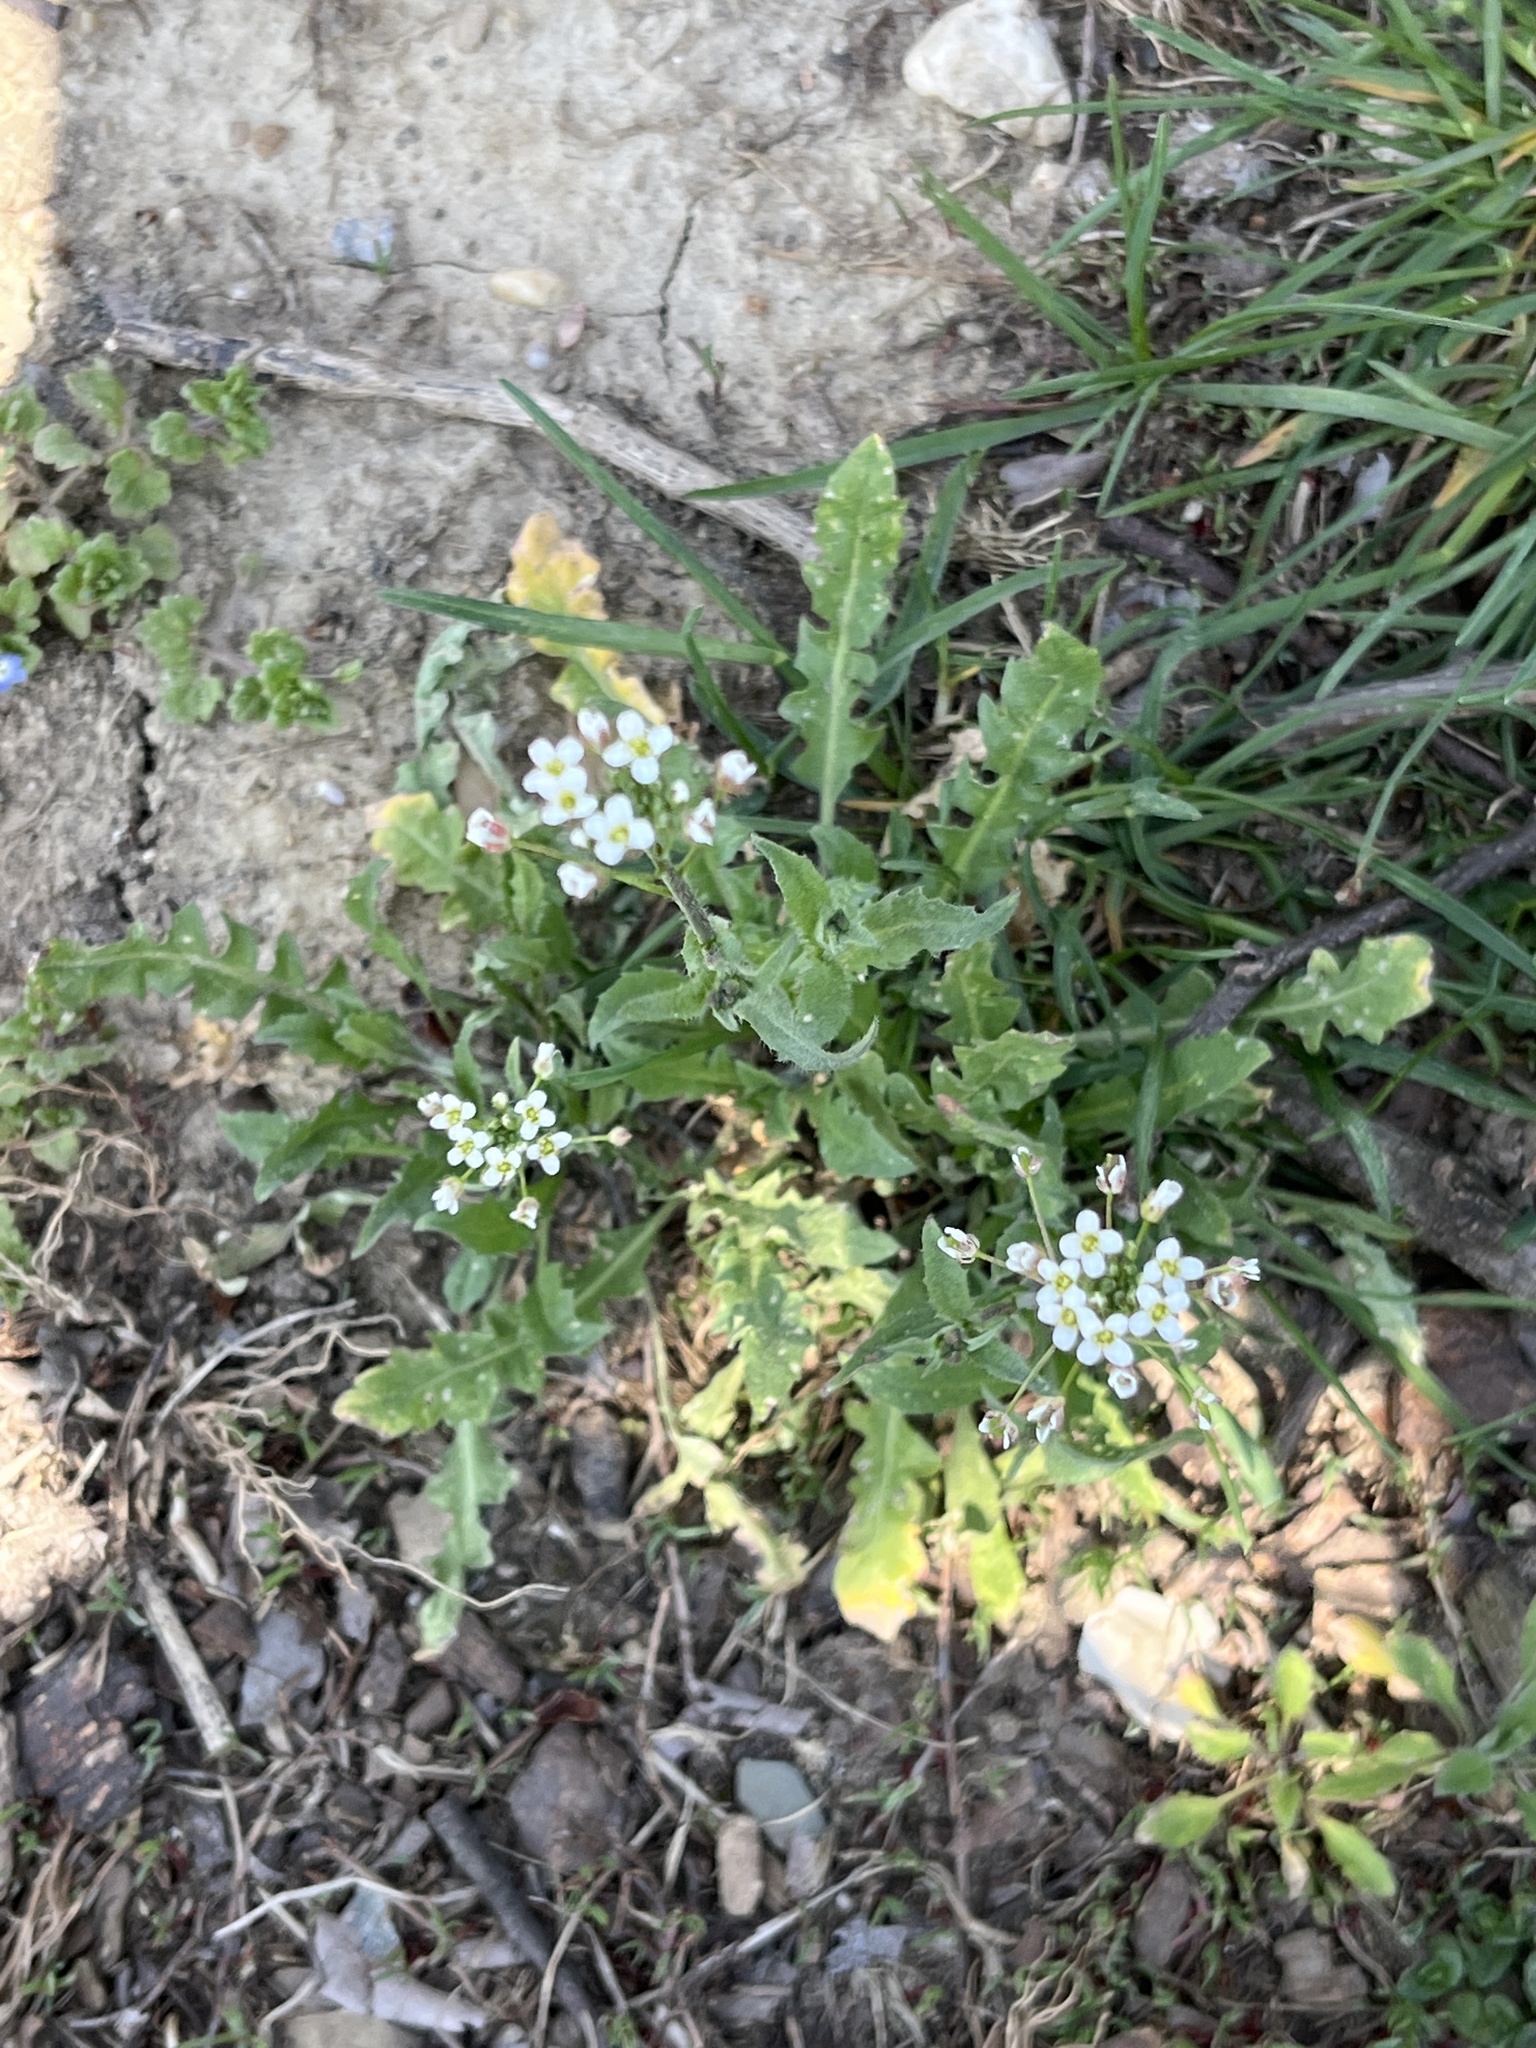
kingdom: Plantae
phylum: Tracheophyta
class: Magnoliopsida
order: Brassicales
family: Brassicaceae
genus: Capsella
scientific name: Capsella bursa-pastoris
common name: Shepherd's purse
